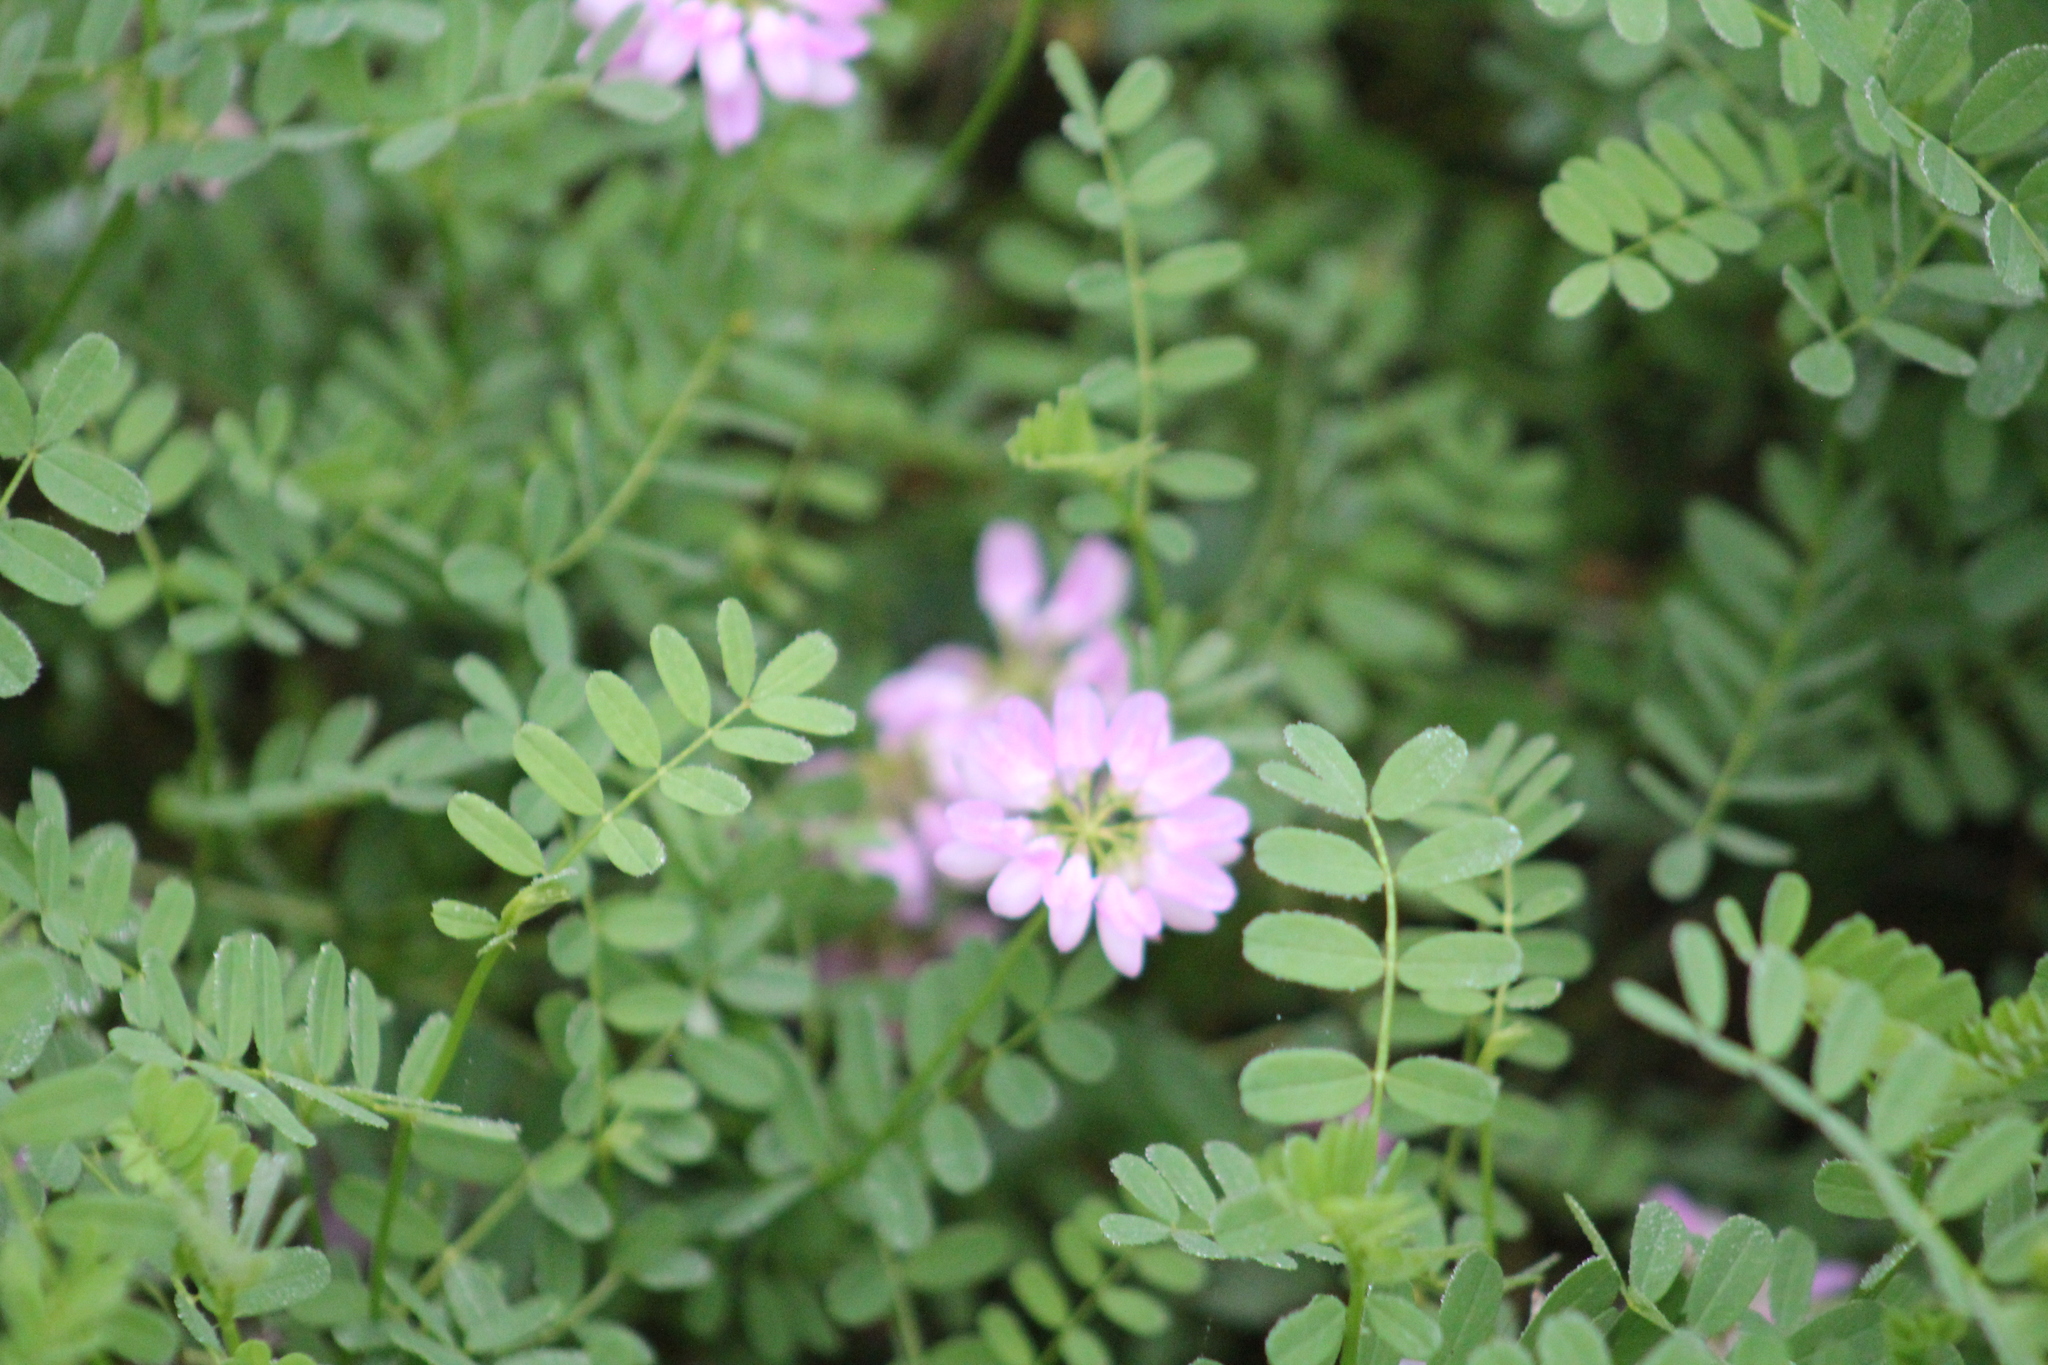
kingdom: Plantae
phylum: Tracheophyta
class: Magnoliopsida
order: Fabales
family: Fabaceae
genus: Coronilla
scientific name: Coronilla varia
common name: Crownvetch
